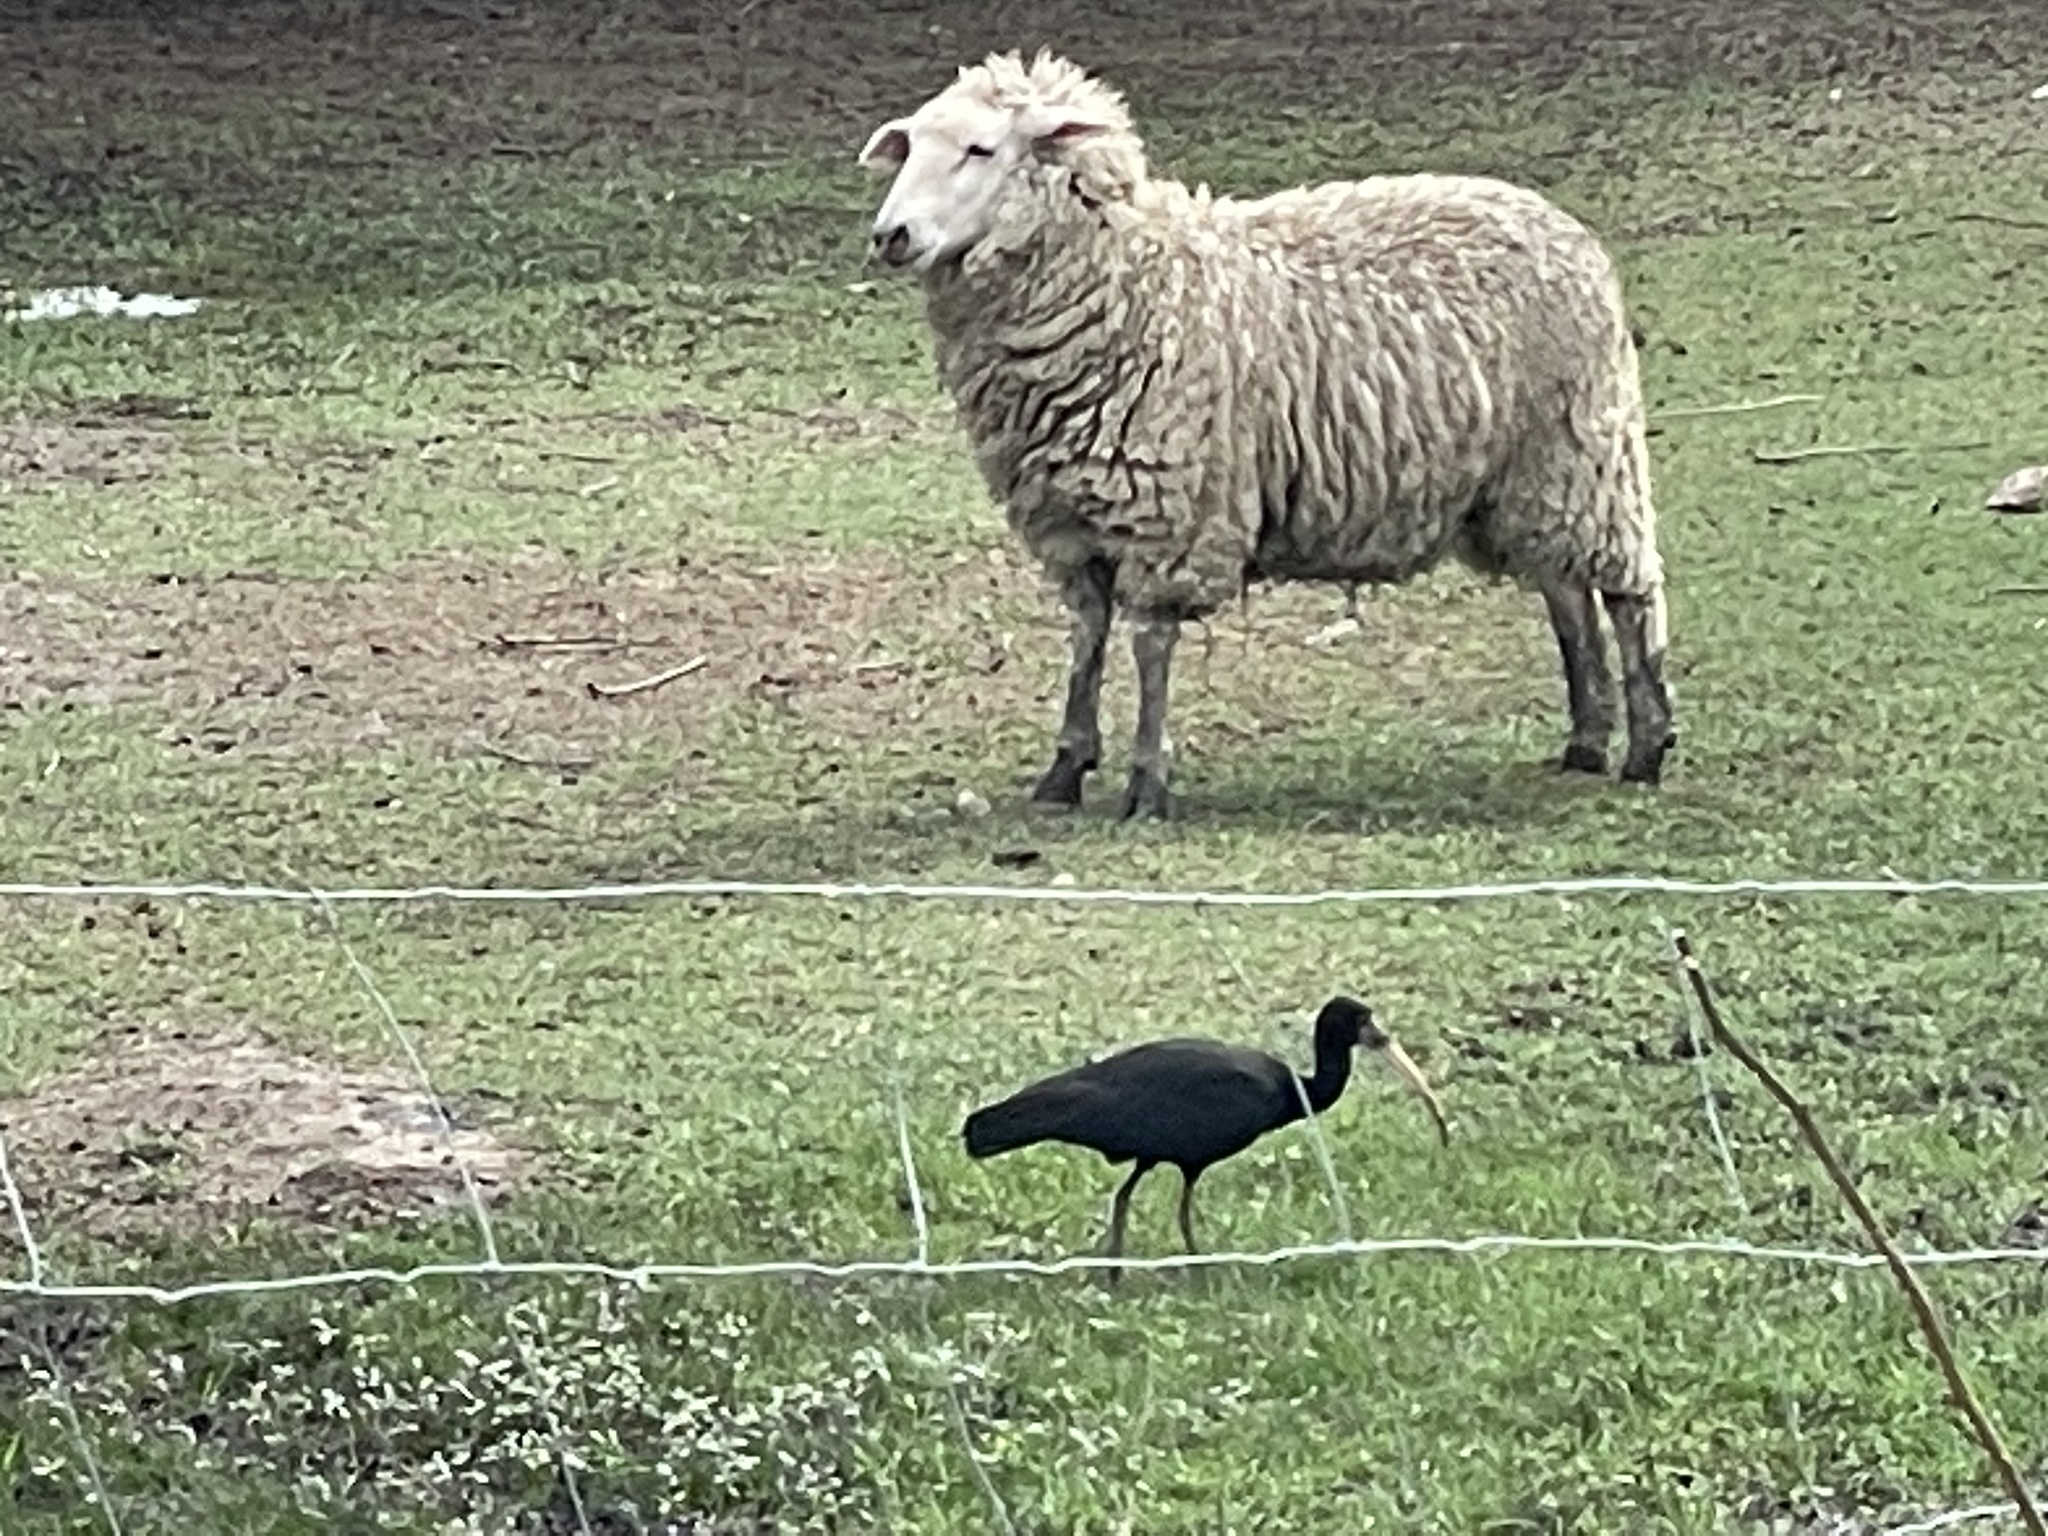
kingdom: Animalia
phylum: Chordata
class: Aves
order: Pelecaniformes
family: Threskiornithidae
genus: Phimosus
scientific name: Phimosus infuscatus
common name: Bare-faced ibis
